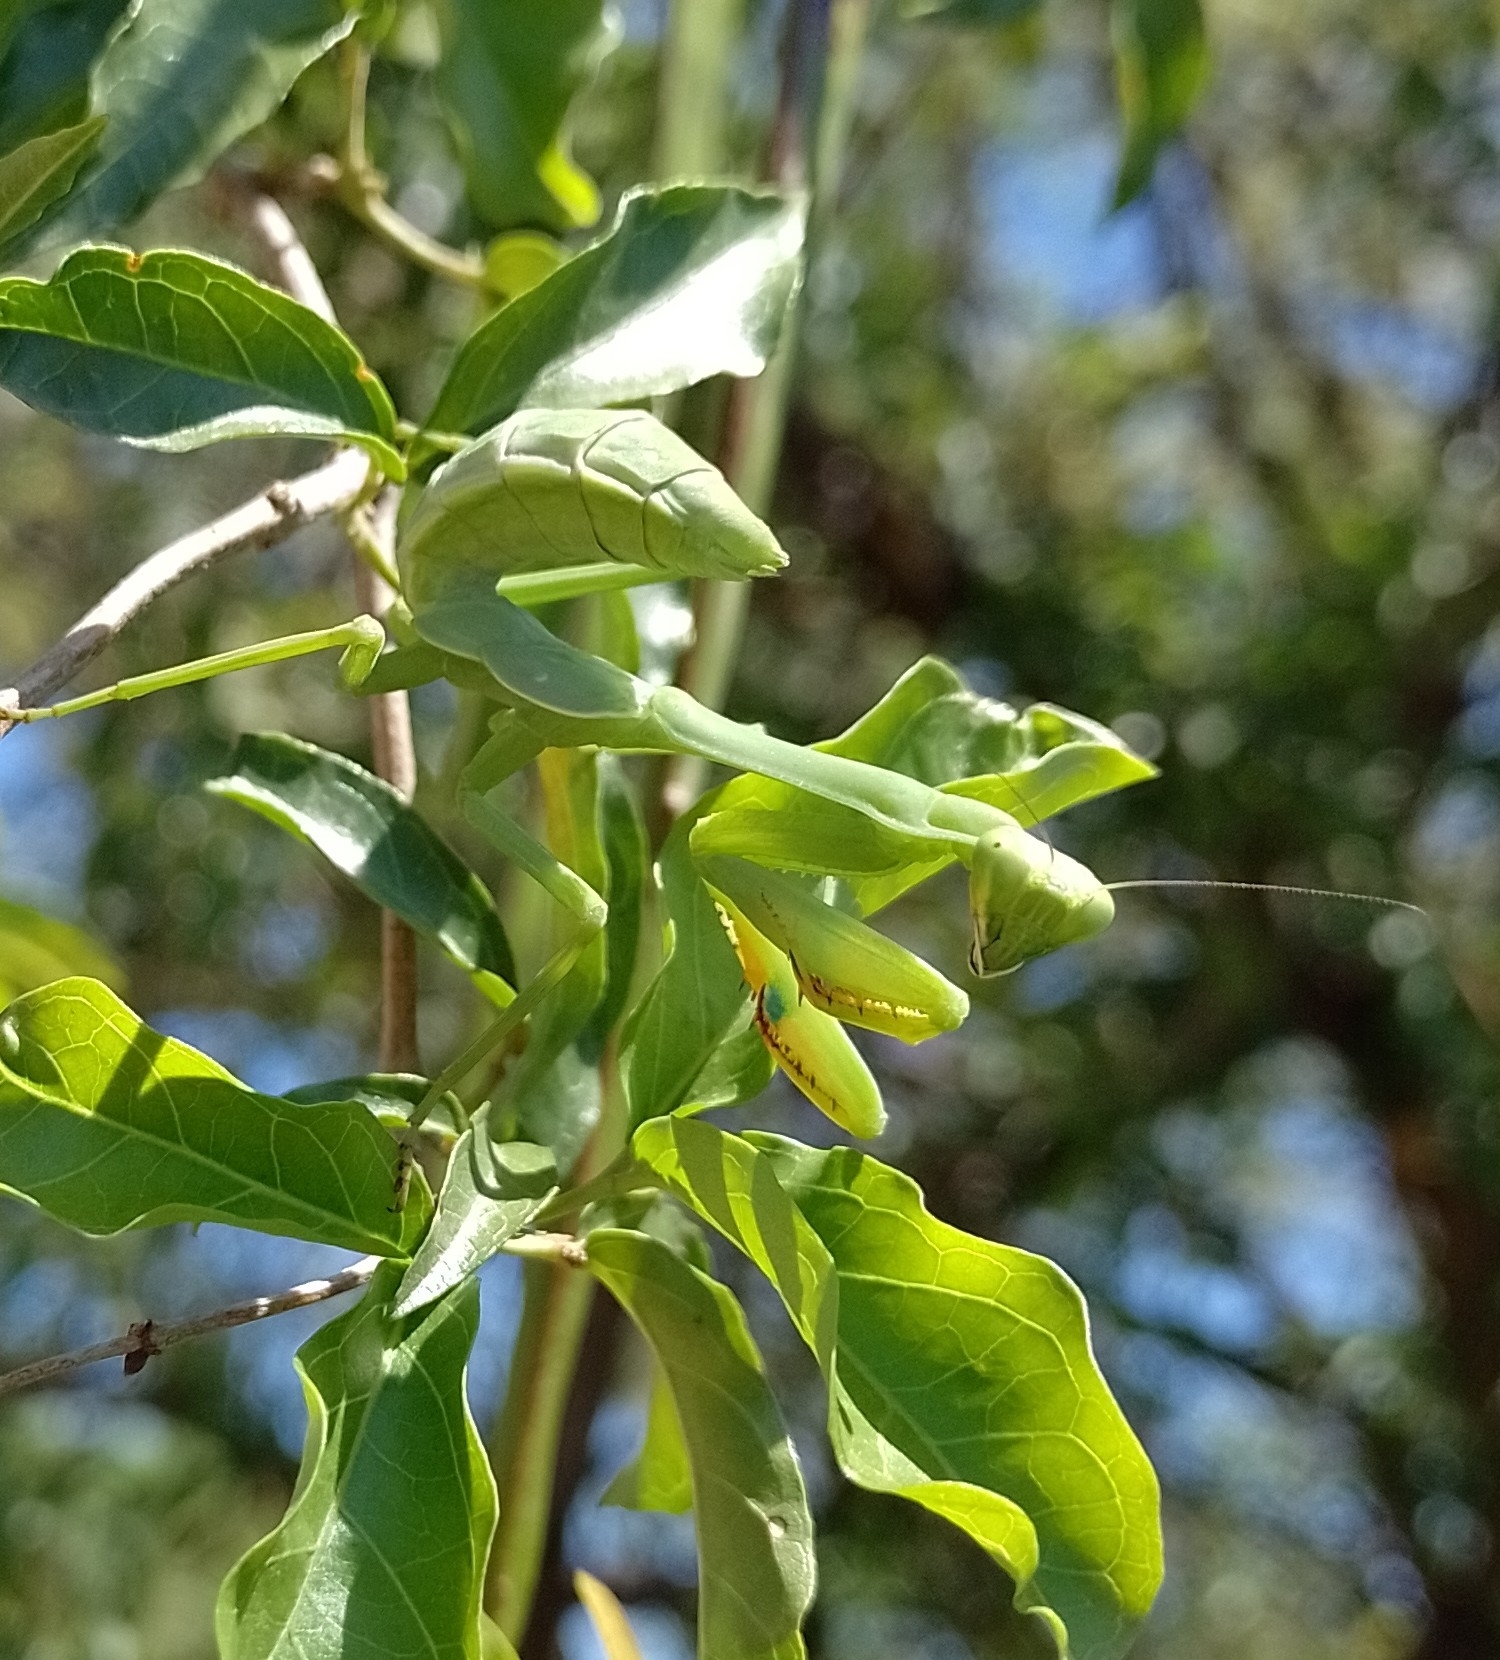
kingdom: Animalia
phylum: Arthropoda
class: Insecta
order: Mantodea
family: Mantidae
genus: Stagmatoptera
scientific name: Stagmatoptera hyaloptera
